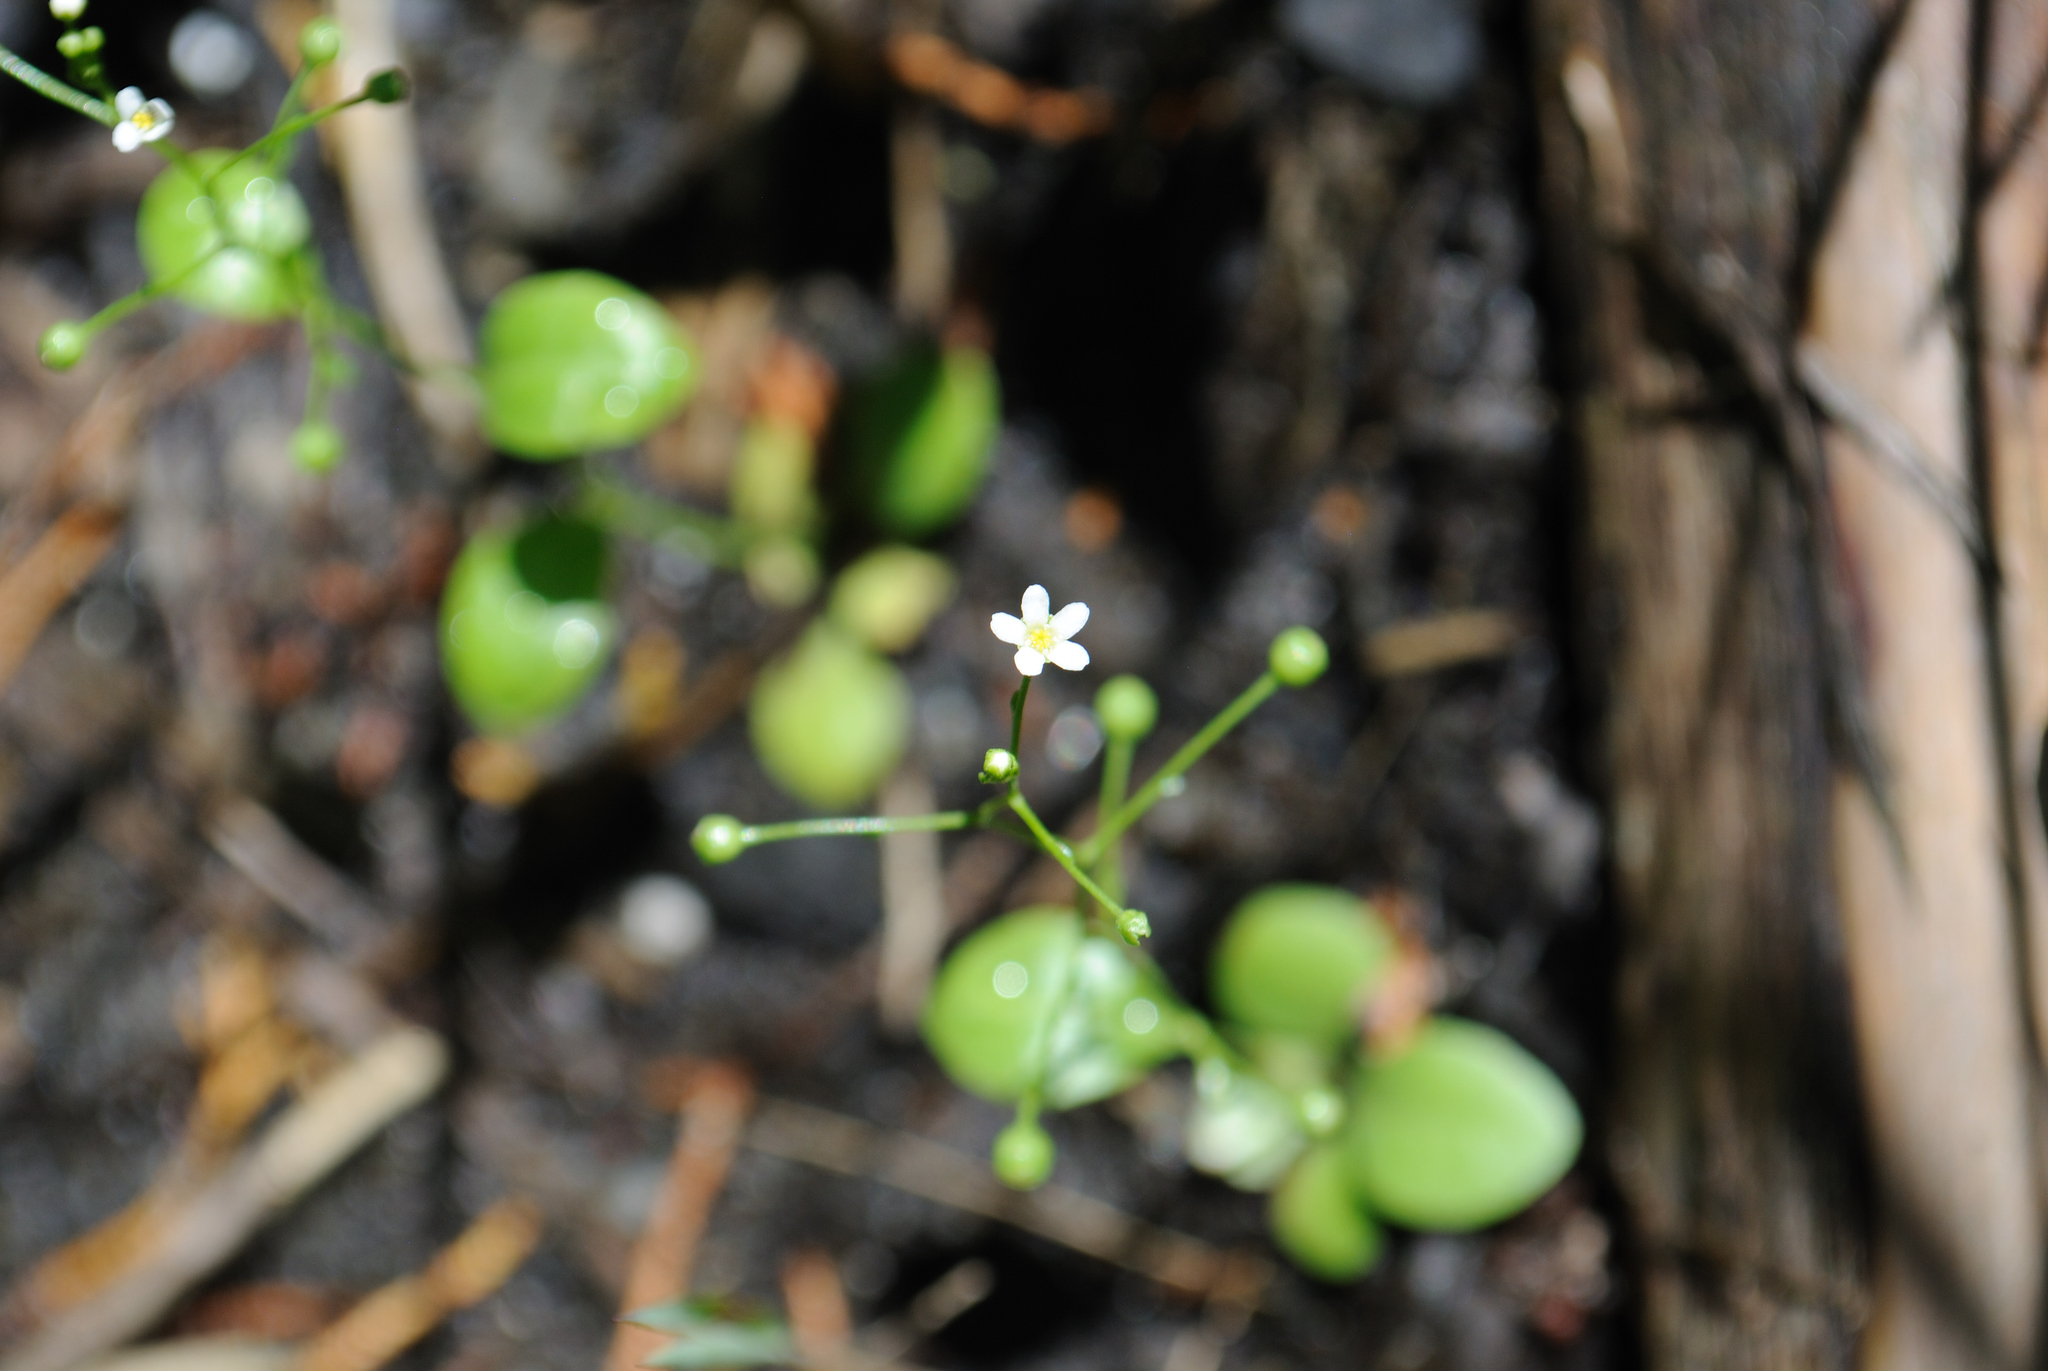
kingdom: Plantae
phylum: Tracheophyta
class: Magnoliopsida
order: Ericales
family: Primulaceae
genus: Samolus
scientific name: Samolus parviflorus
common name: False water pimpernel
